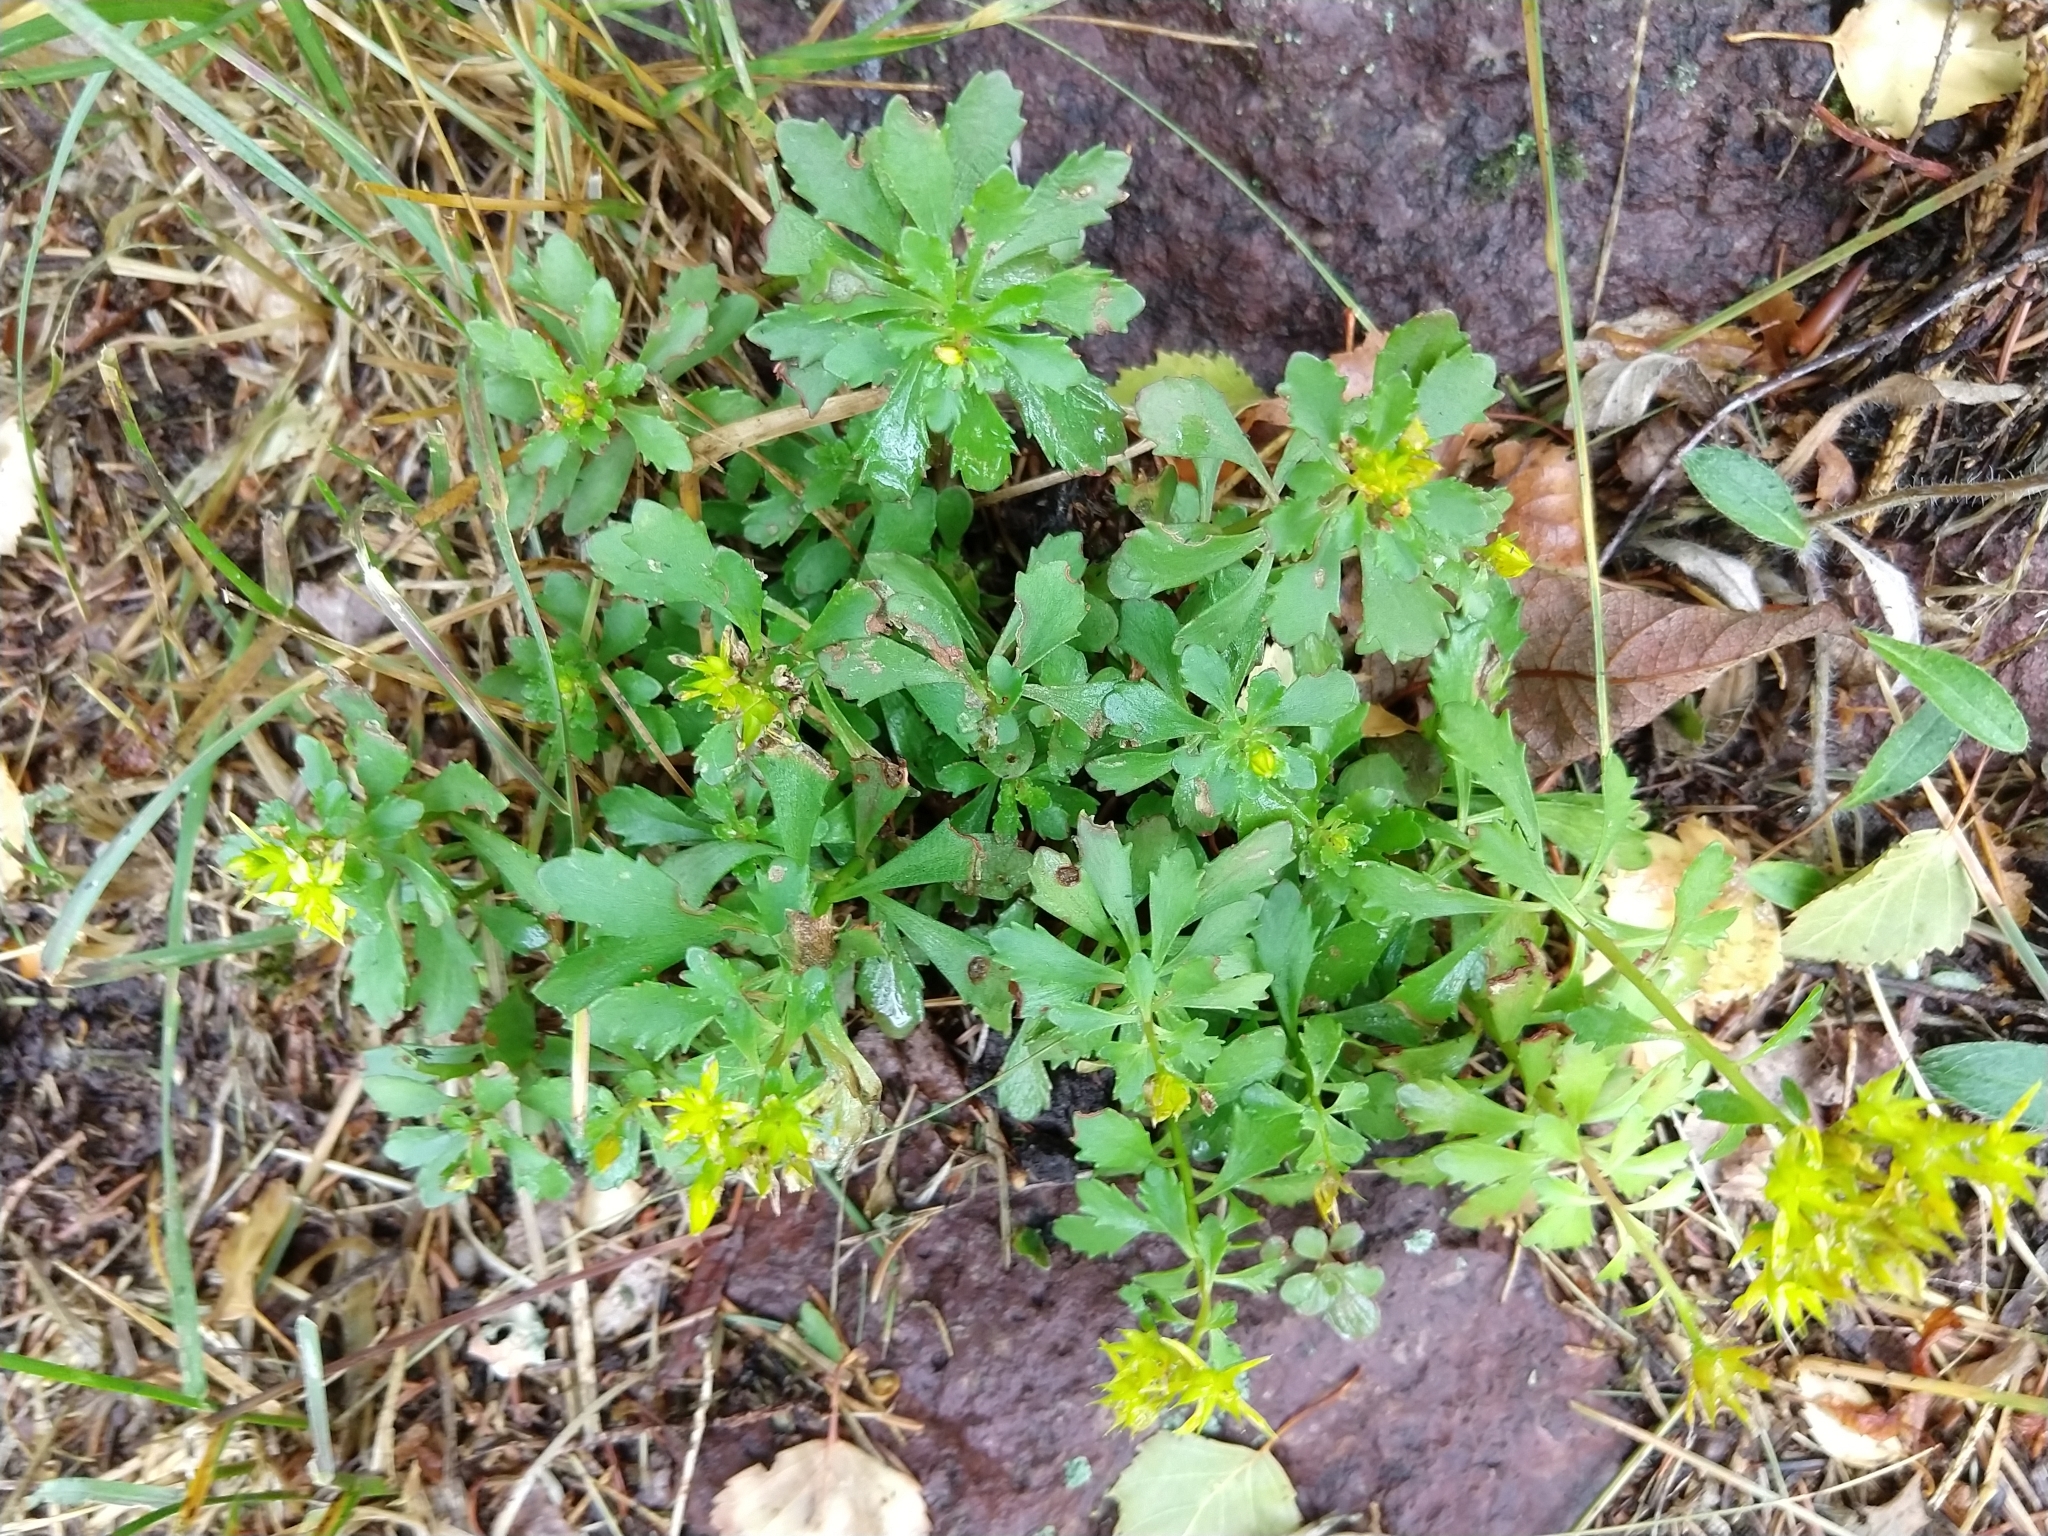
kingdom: Plantae
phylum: Tracheophyta
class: Magnoliopsida
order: Saxifragales
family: Crassulaceae
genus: Phedimus
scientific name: Phedimus kamtschaticus
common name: Orange stonecrop
